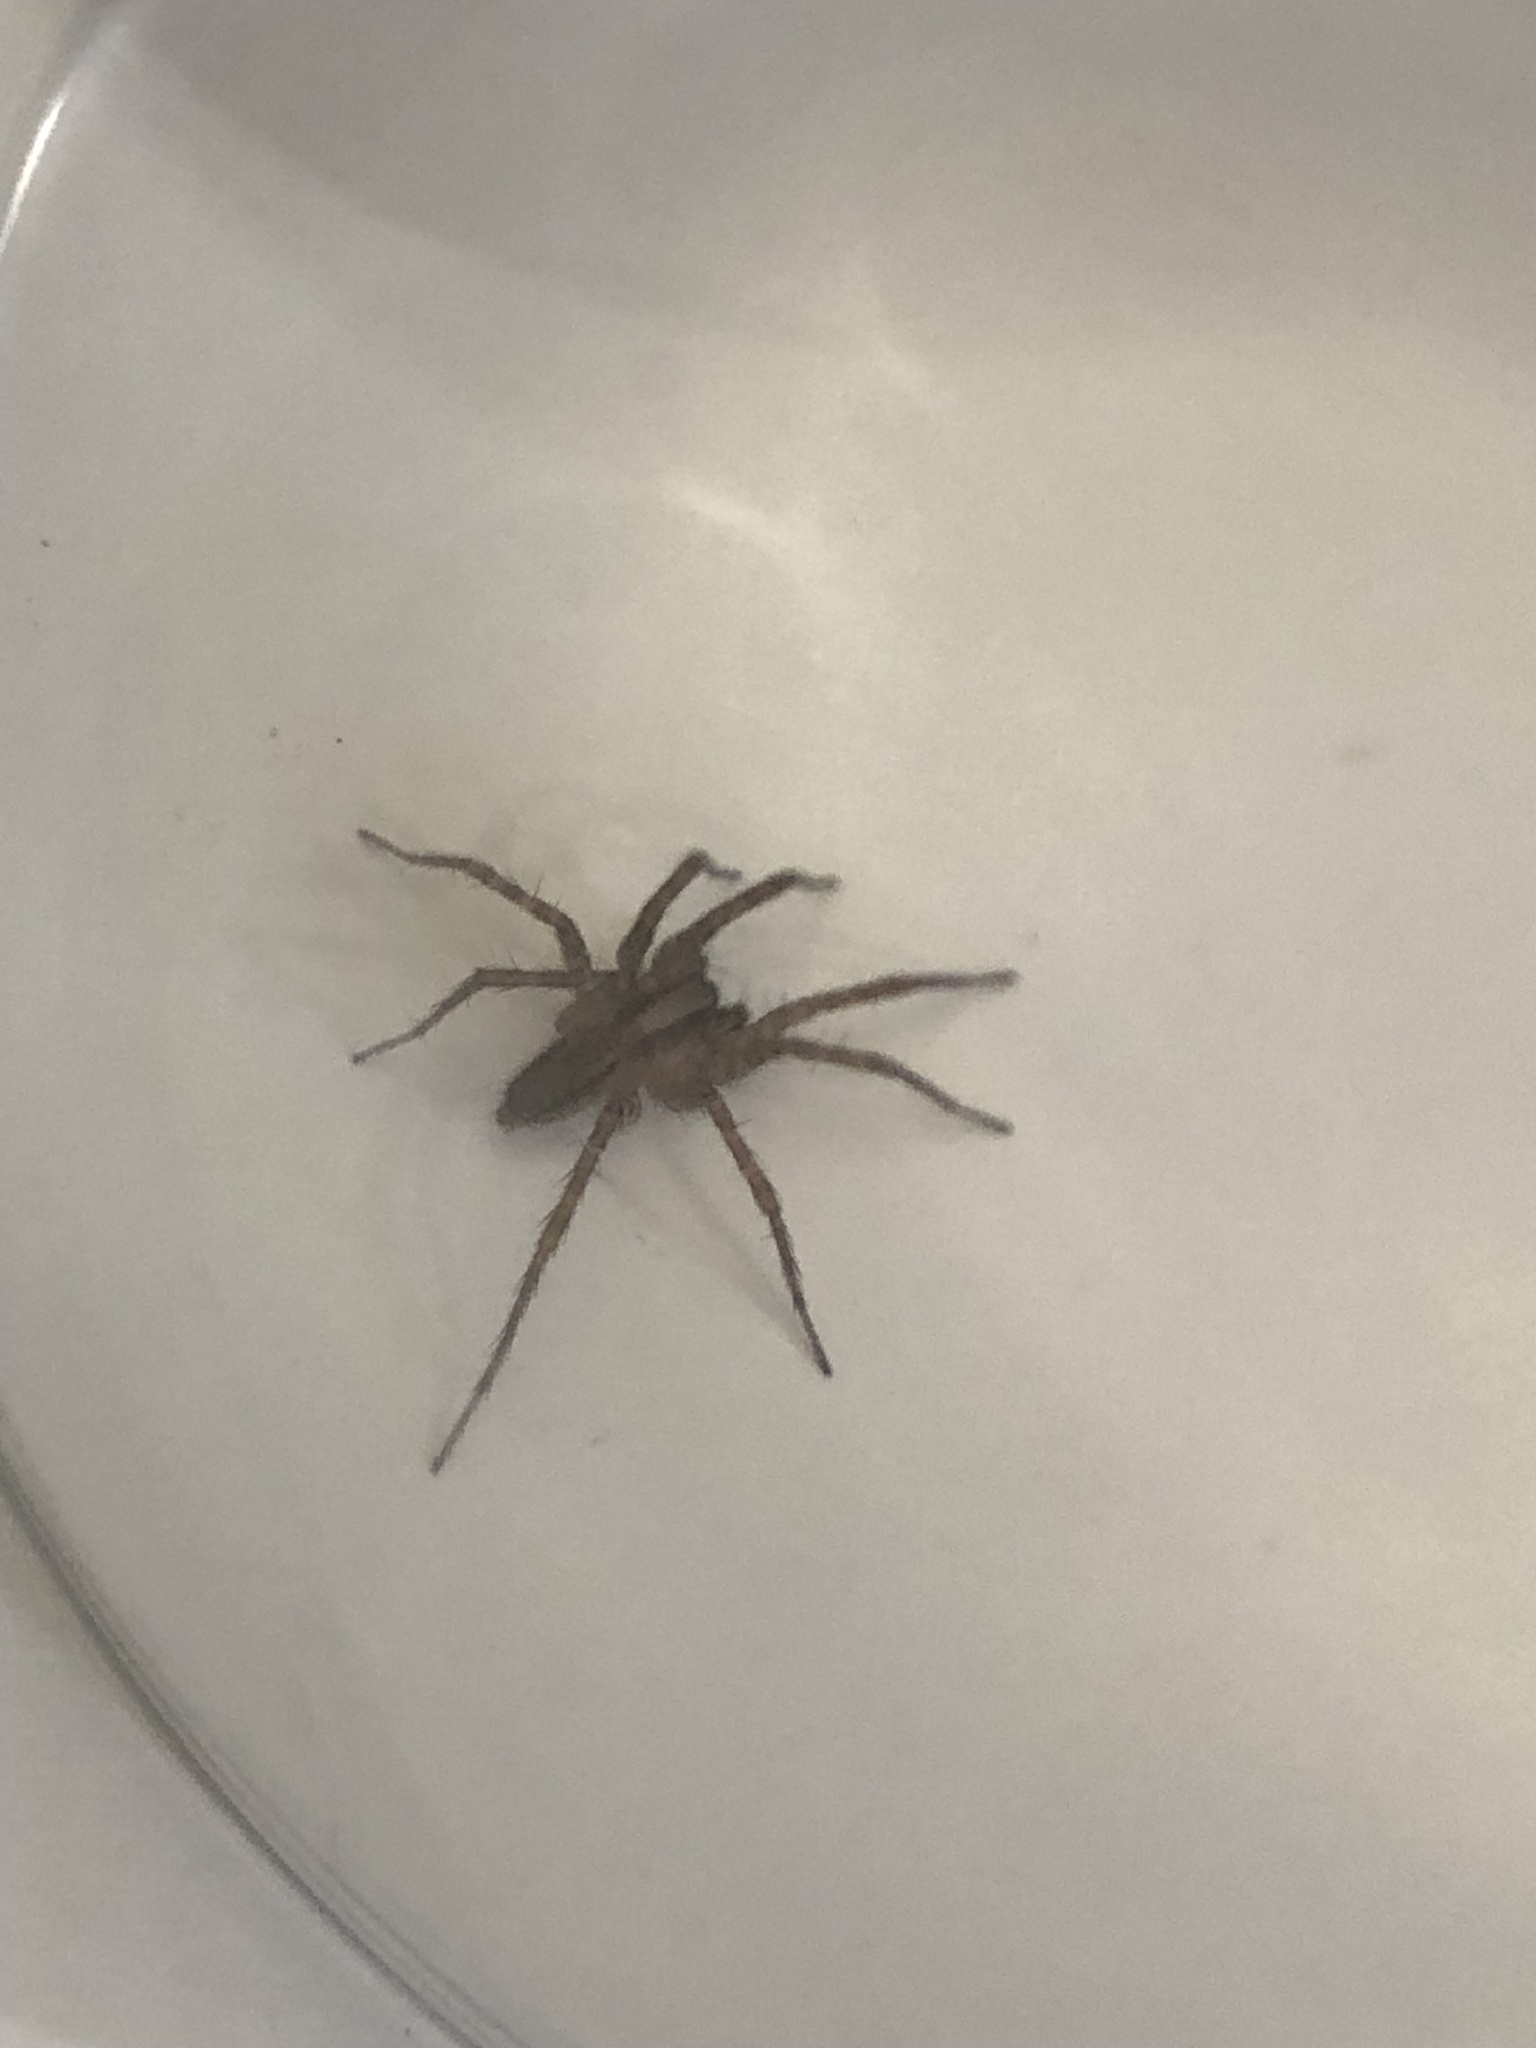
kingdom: Animalia
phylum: Arthropoda
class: Arachnida
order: Araneae
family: Agelenidae
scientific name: Agelenidae
